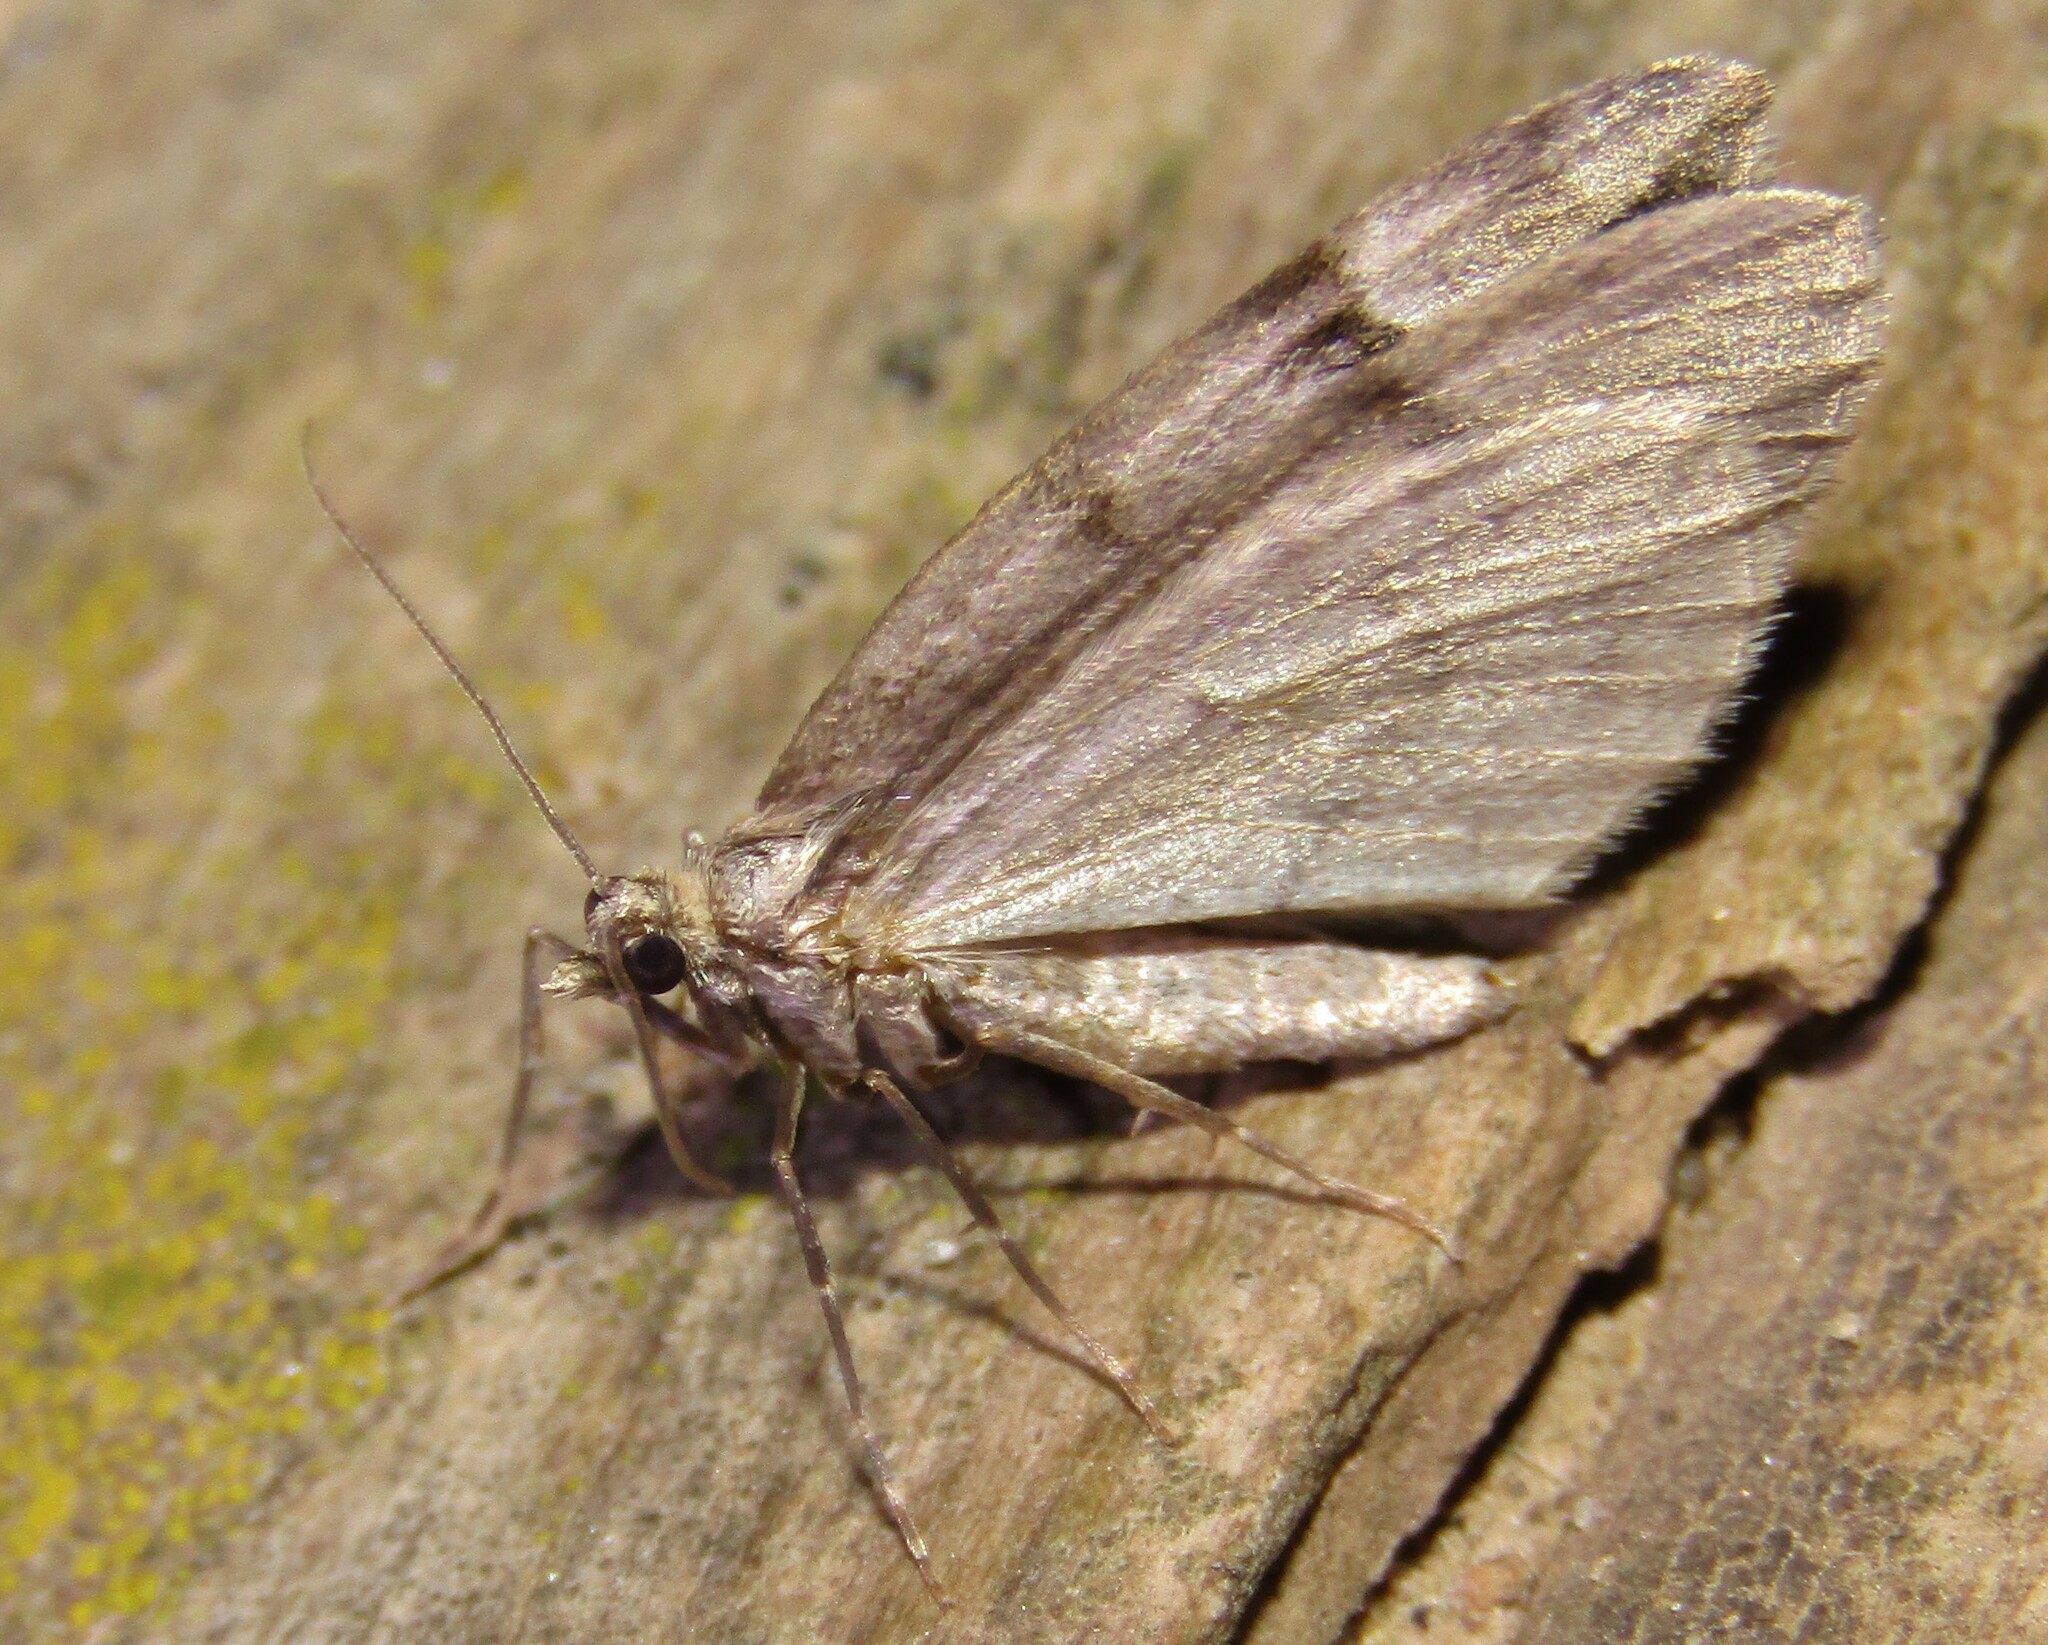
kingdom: Animalia
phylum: Arthropoda
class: Insecta
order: Lepidoptera
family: Geometridae
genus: Thera
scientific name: Thera juniperata
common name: Juniper carpet
